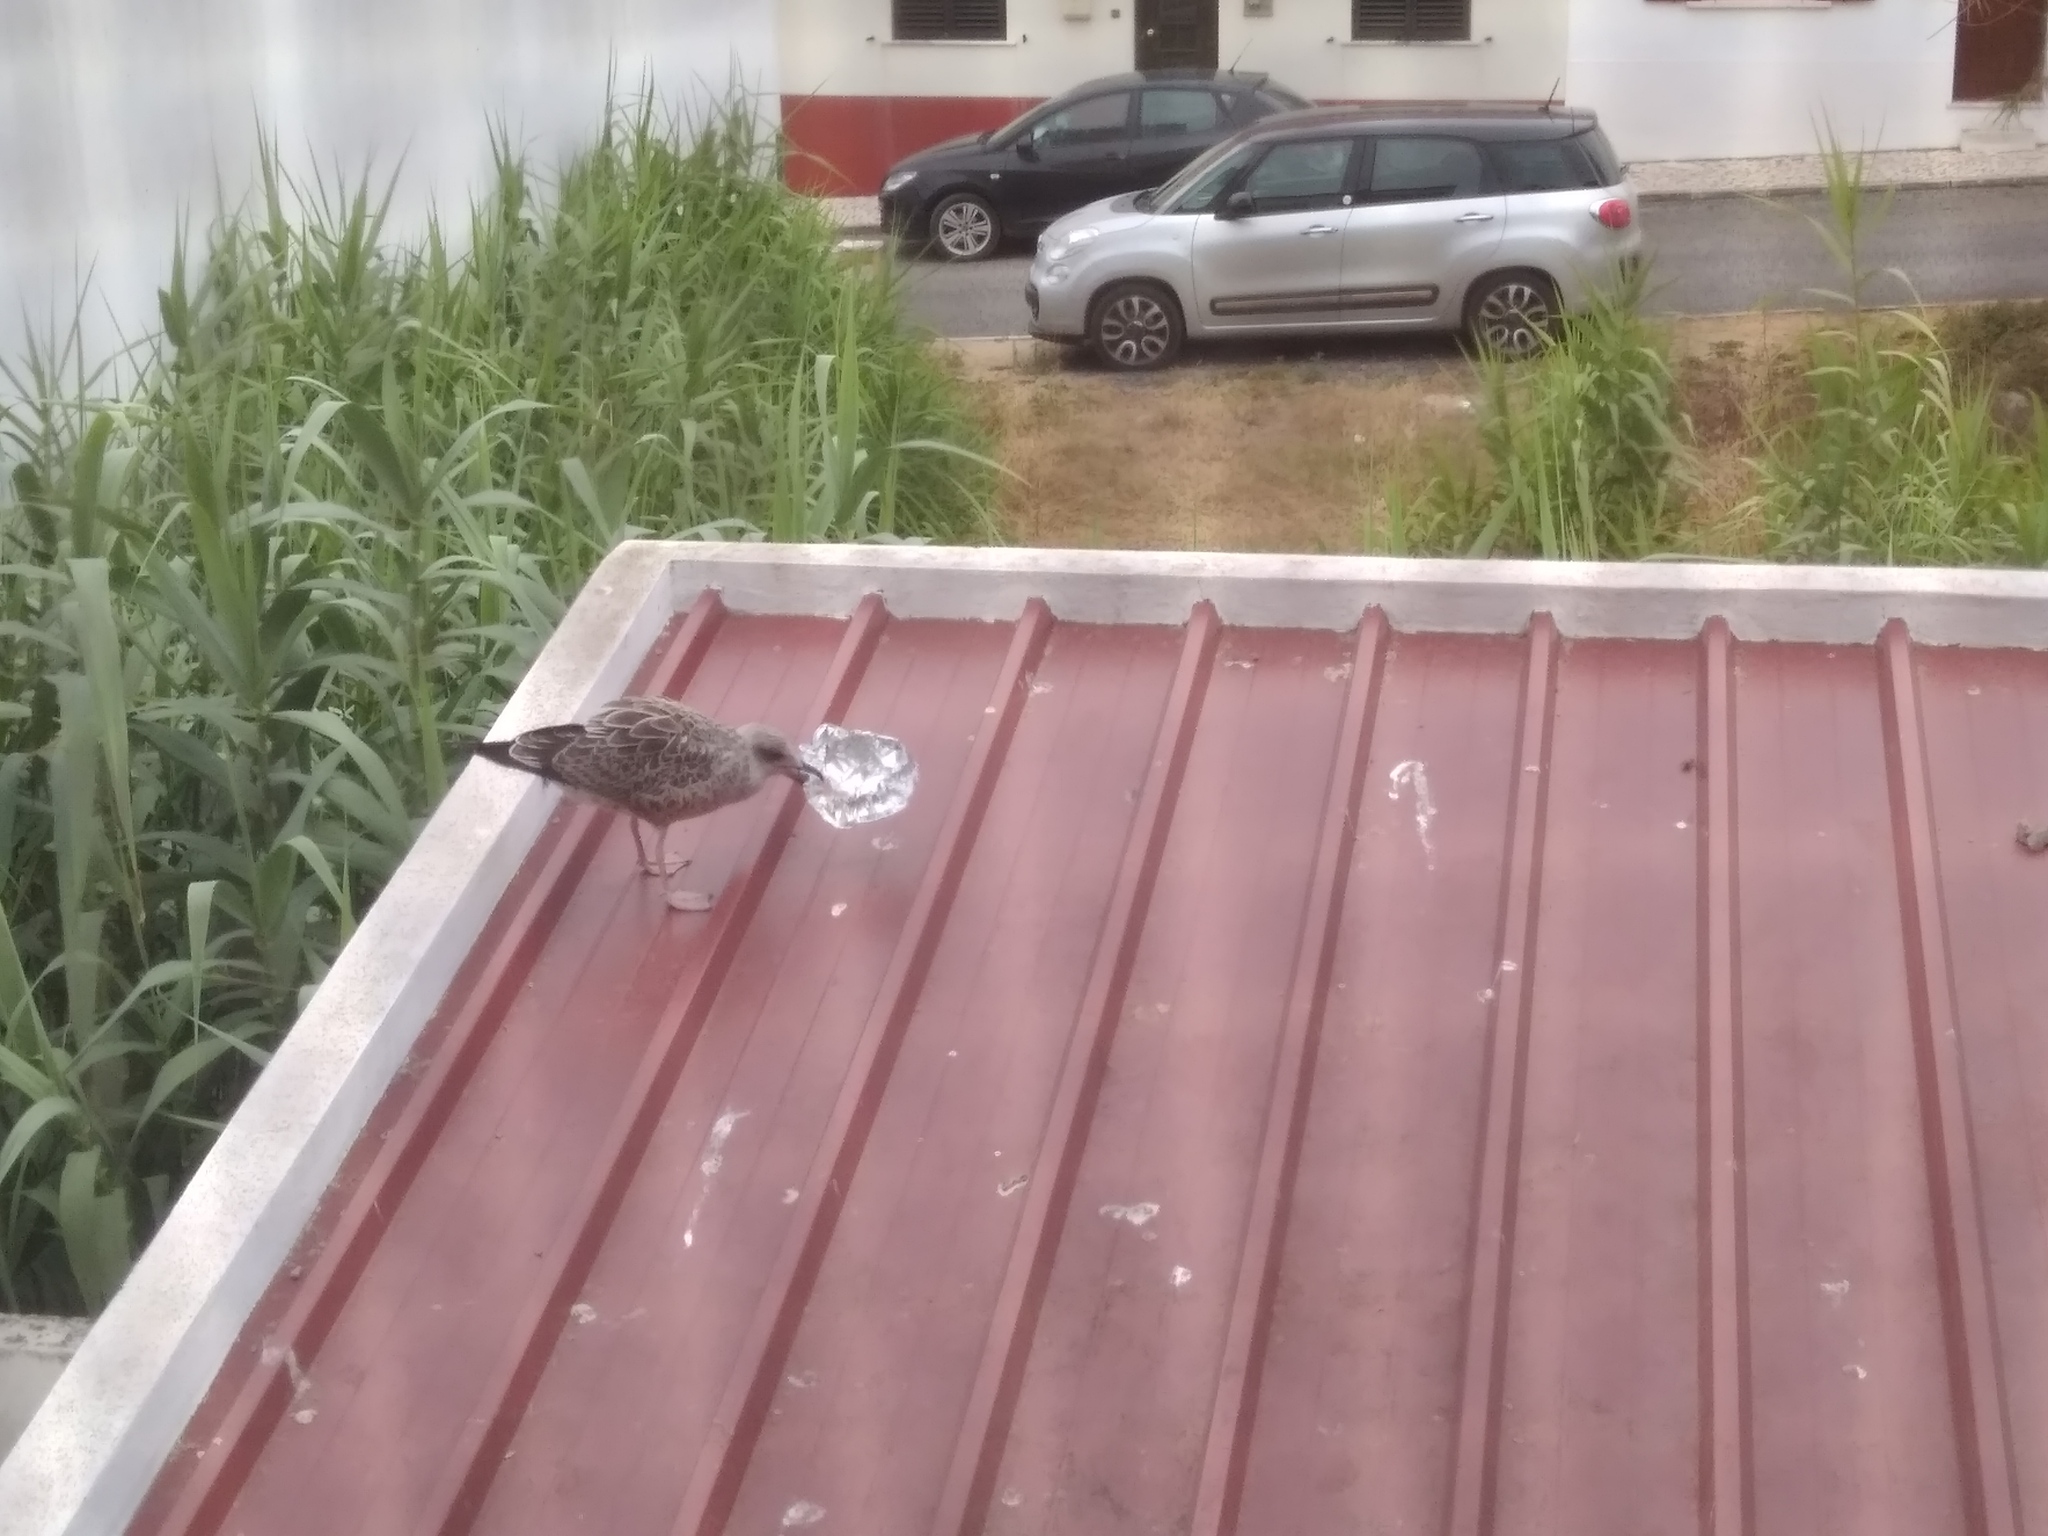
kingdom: Animalia
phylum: Chordata
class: Aves
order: Charadriiformes
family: Laridae
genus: Larus
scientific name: Larus michahellis
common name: Yellow-legged gull
